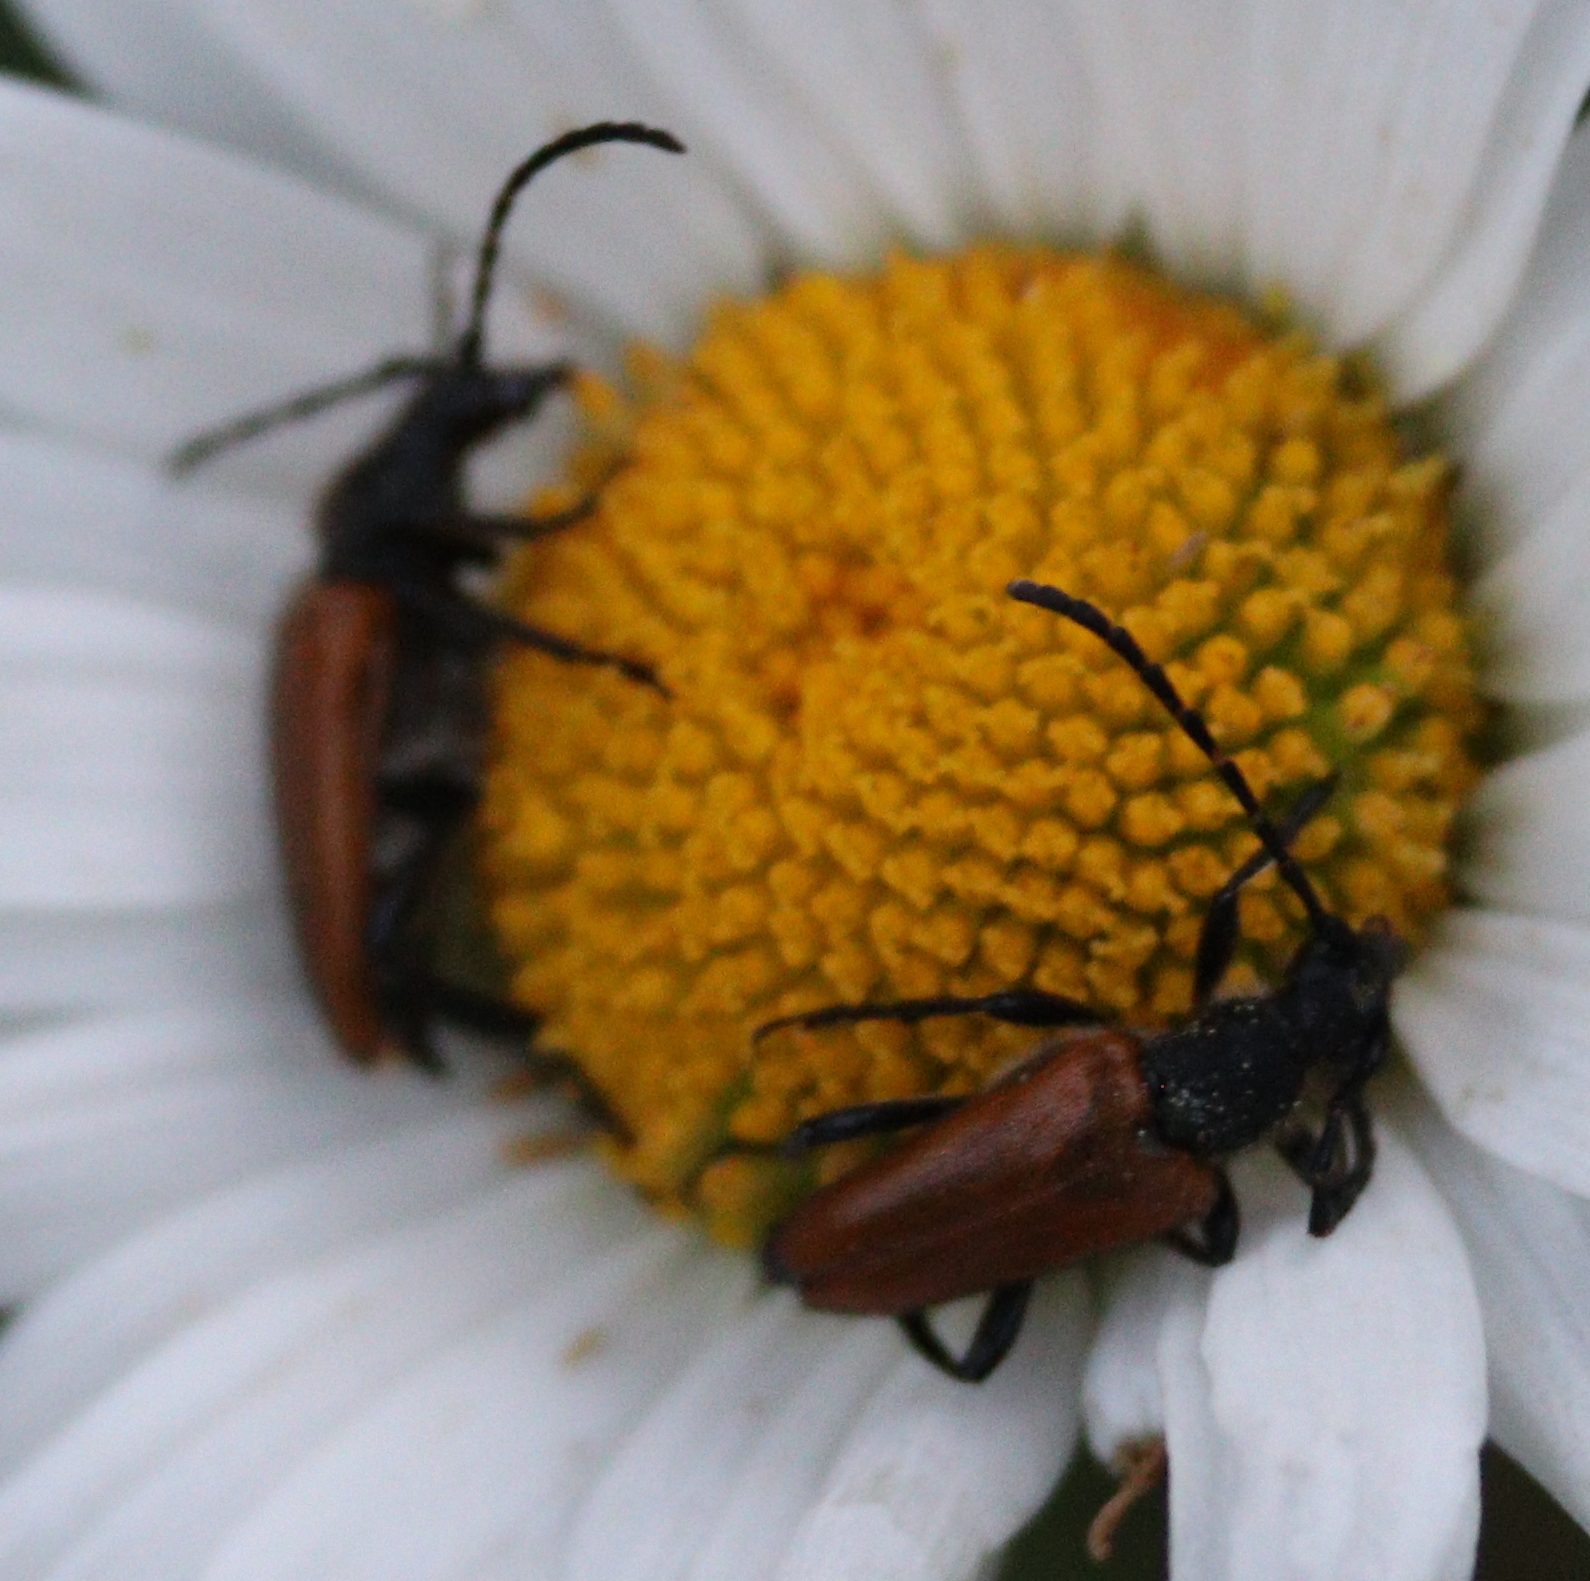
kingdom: Animalia
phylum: Arthropoda
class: Insecta
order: Coleoptera
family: Cerambycidae
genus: Paracorymbia
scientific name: Paracorymbia maculicornis
